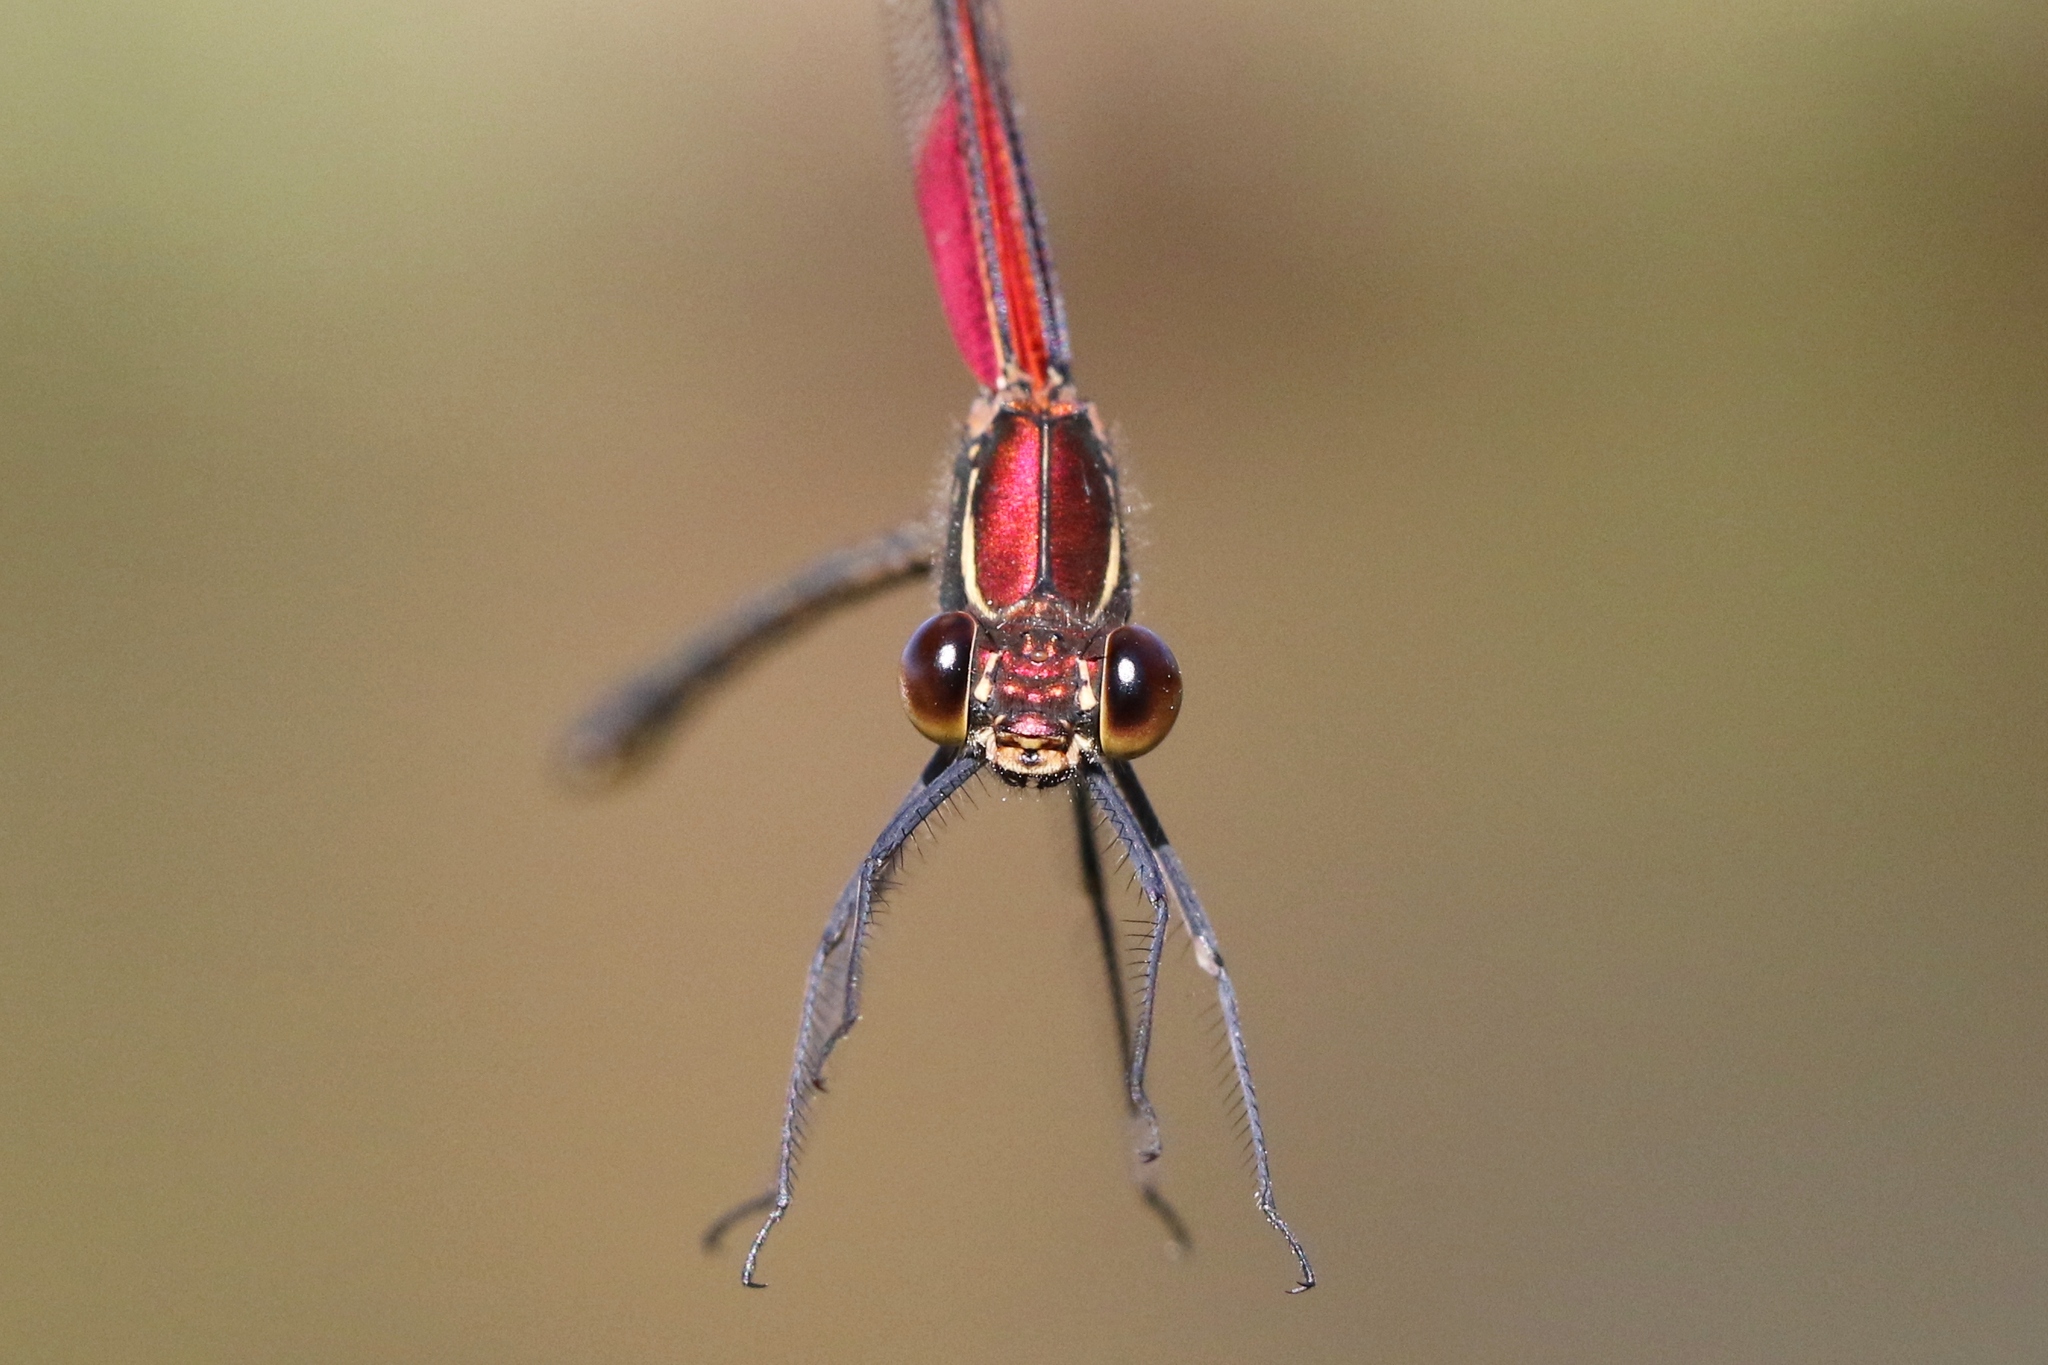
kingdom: Animalia
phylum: Arthropoda
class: Insecta
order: Odonata
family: Calopterygidae
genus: Hetaerina
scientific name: Hetaerina americana
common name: American rubyspot
